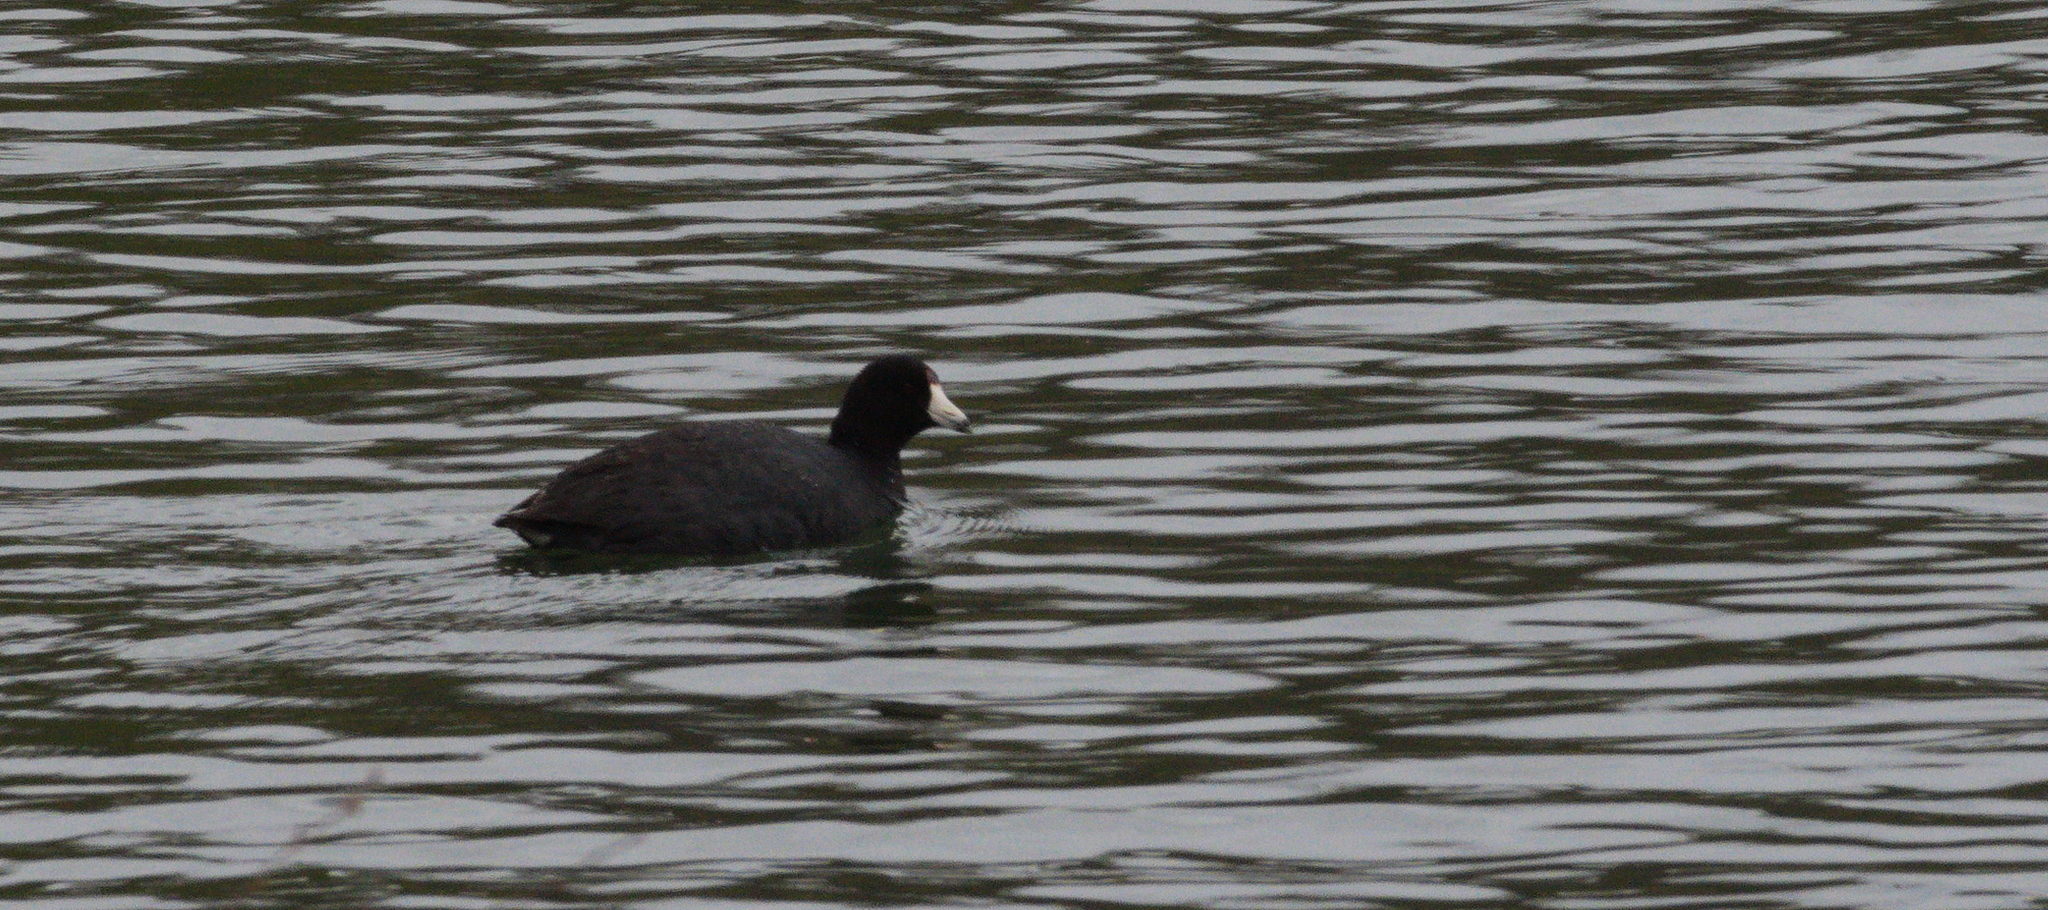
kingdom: Animalia
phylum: Chordata
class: Aves
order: Gruiformes
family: Rallidae
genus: Fulica
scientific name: Fulica americana
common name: American coot
